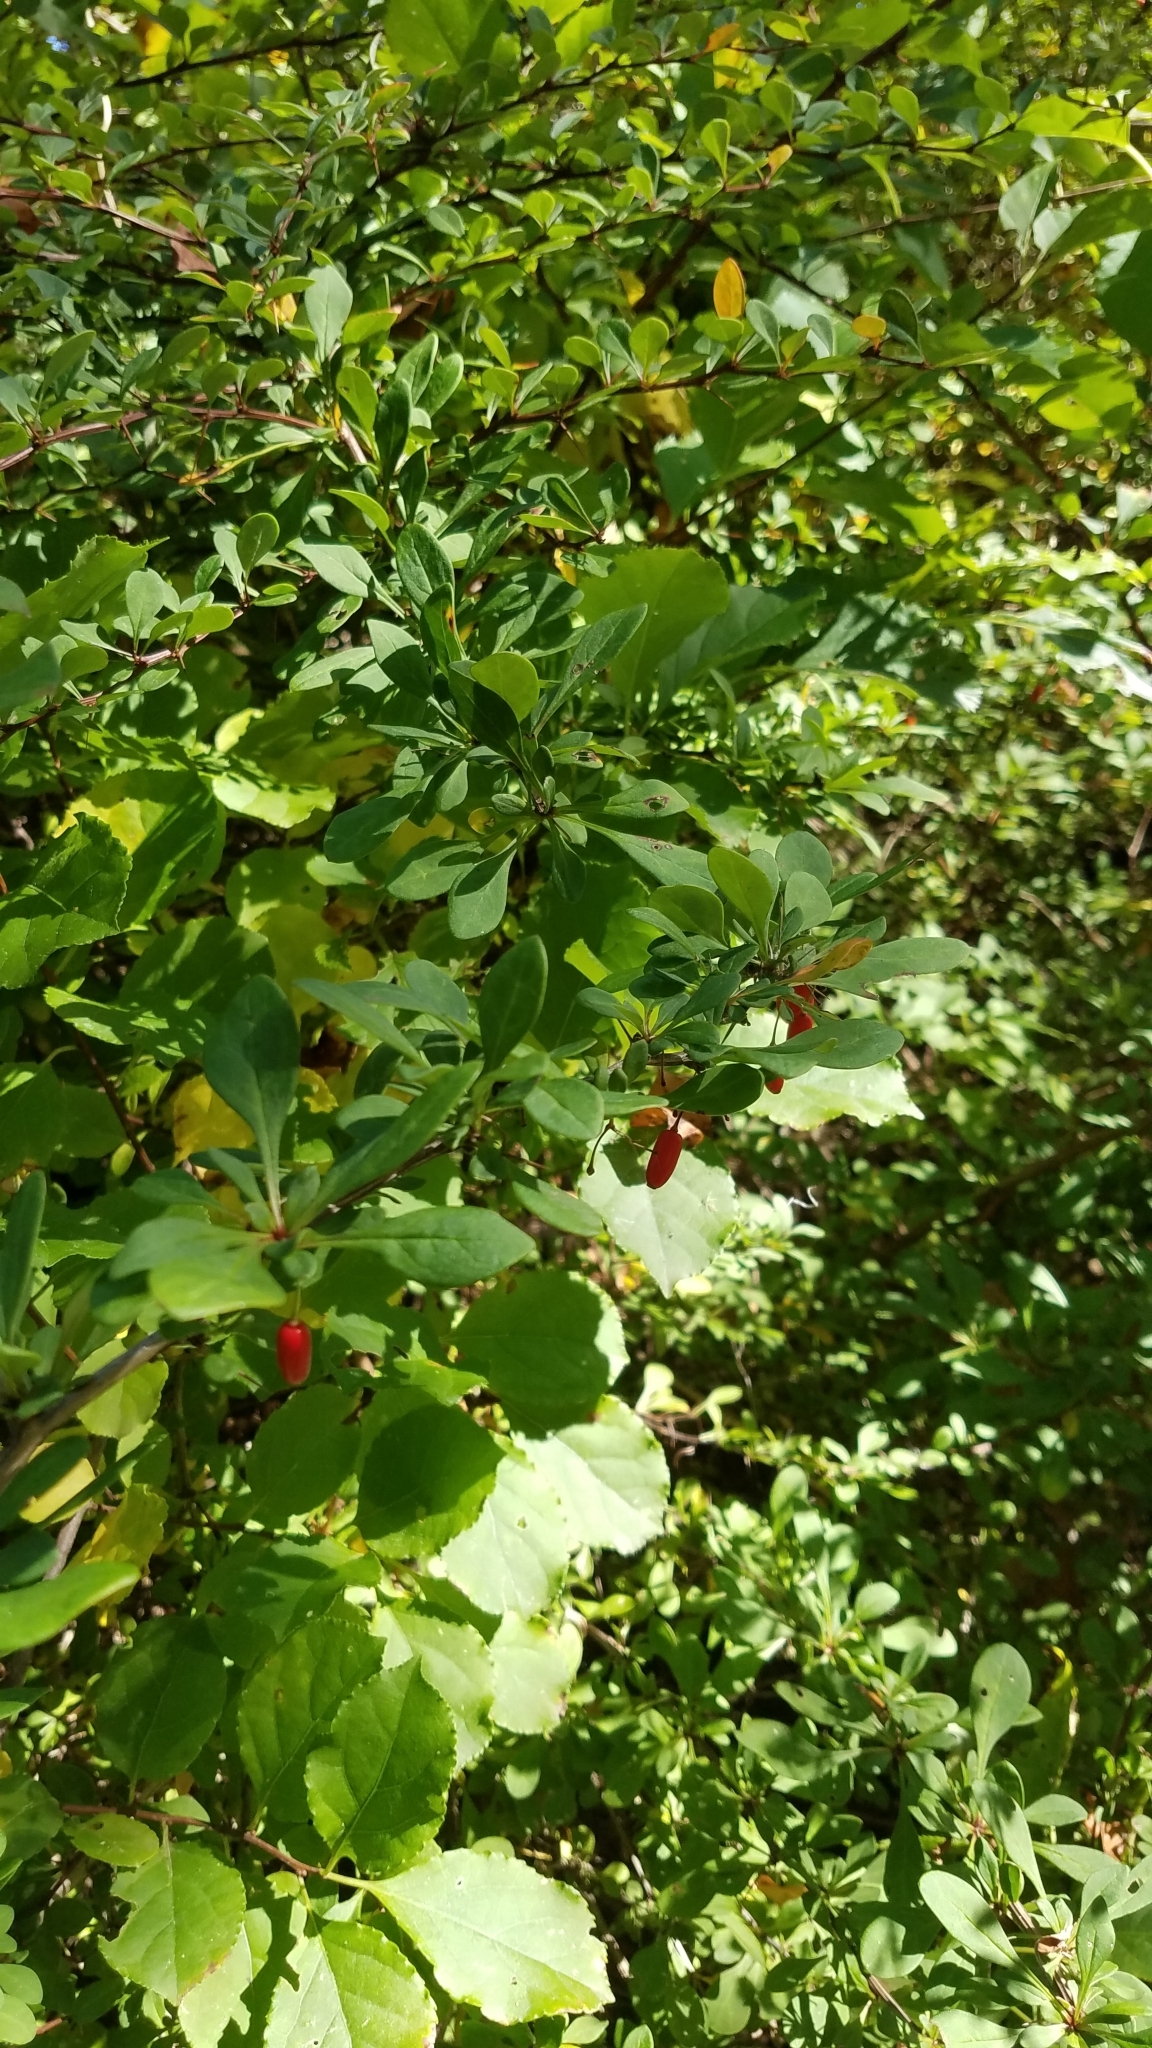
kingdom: Plantae
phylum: Tracheophyta
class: Magnoliopsida
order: Ranunculales
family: Berberidaceae
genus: Berberis
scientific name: Berberis thunbergii
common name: Japanese barberry
